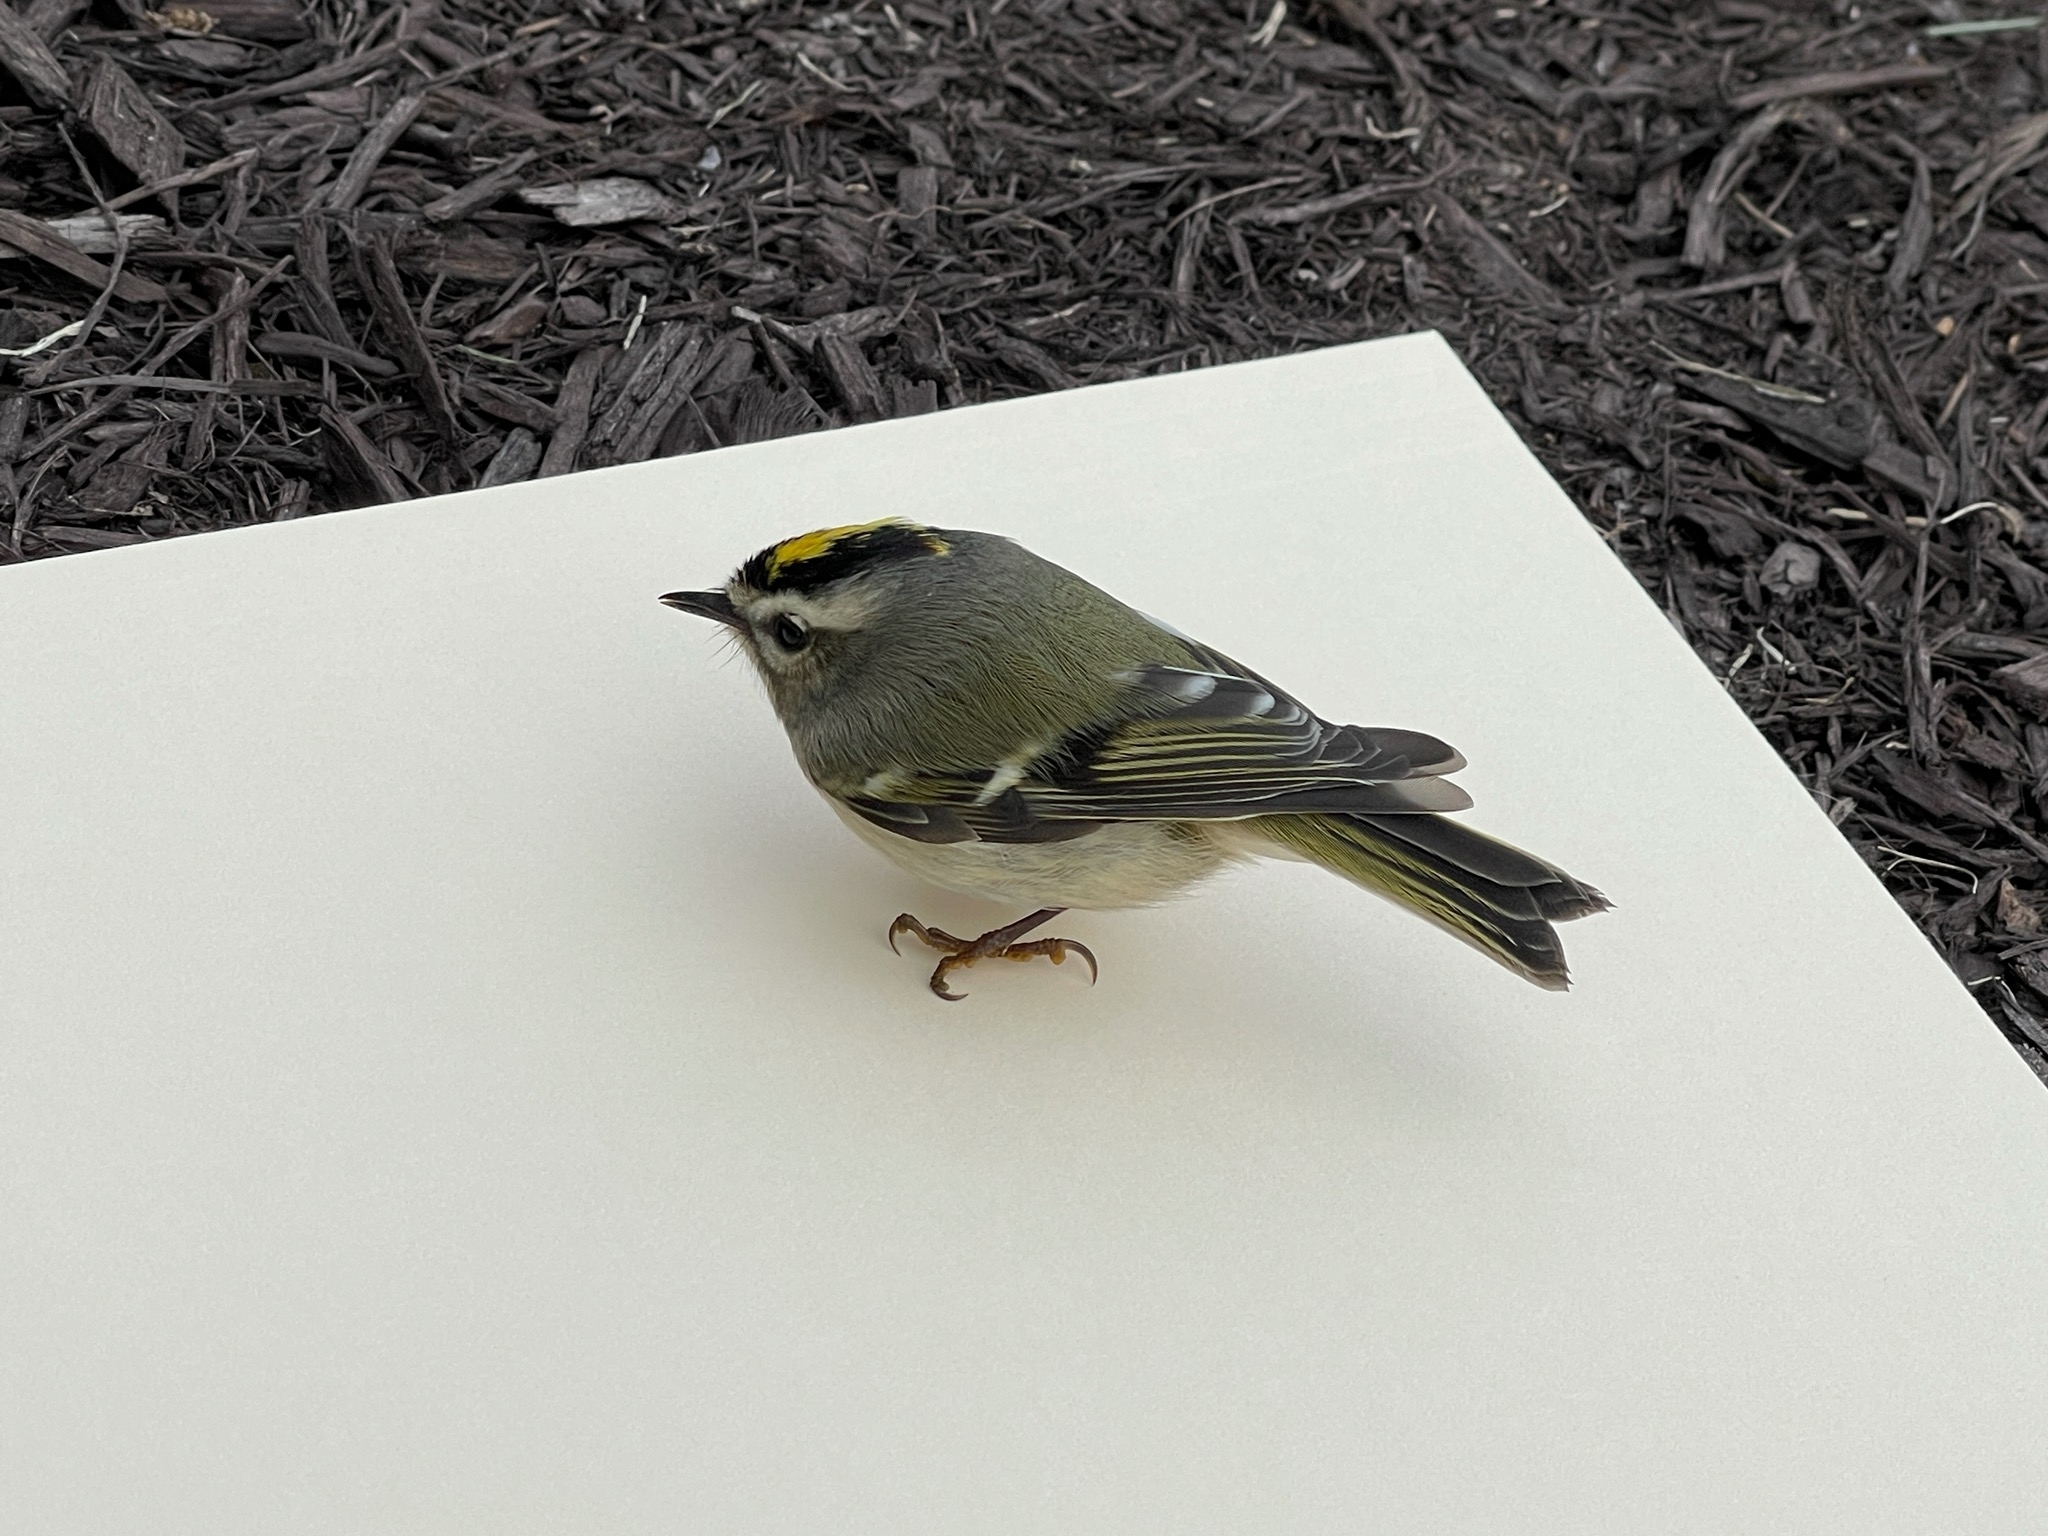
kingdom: Animalia
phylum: Chordata
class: Aves
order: Passeriformes
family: Regulidae
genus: Regulus
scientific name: Regulus satrapa
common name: Golden-crowned kinglet
